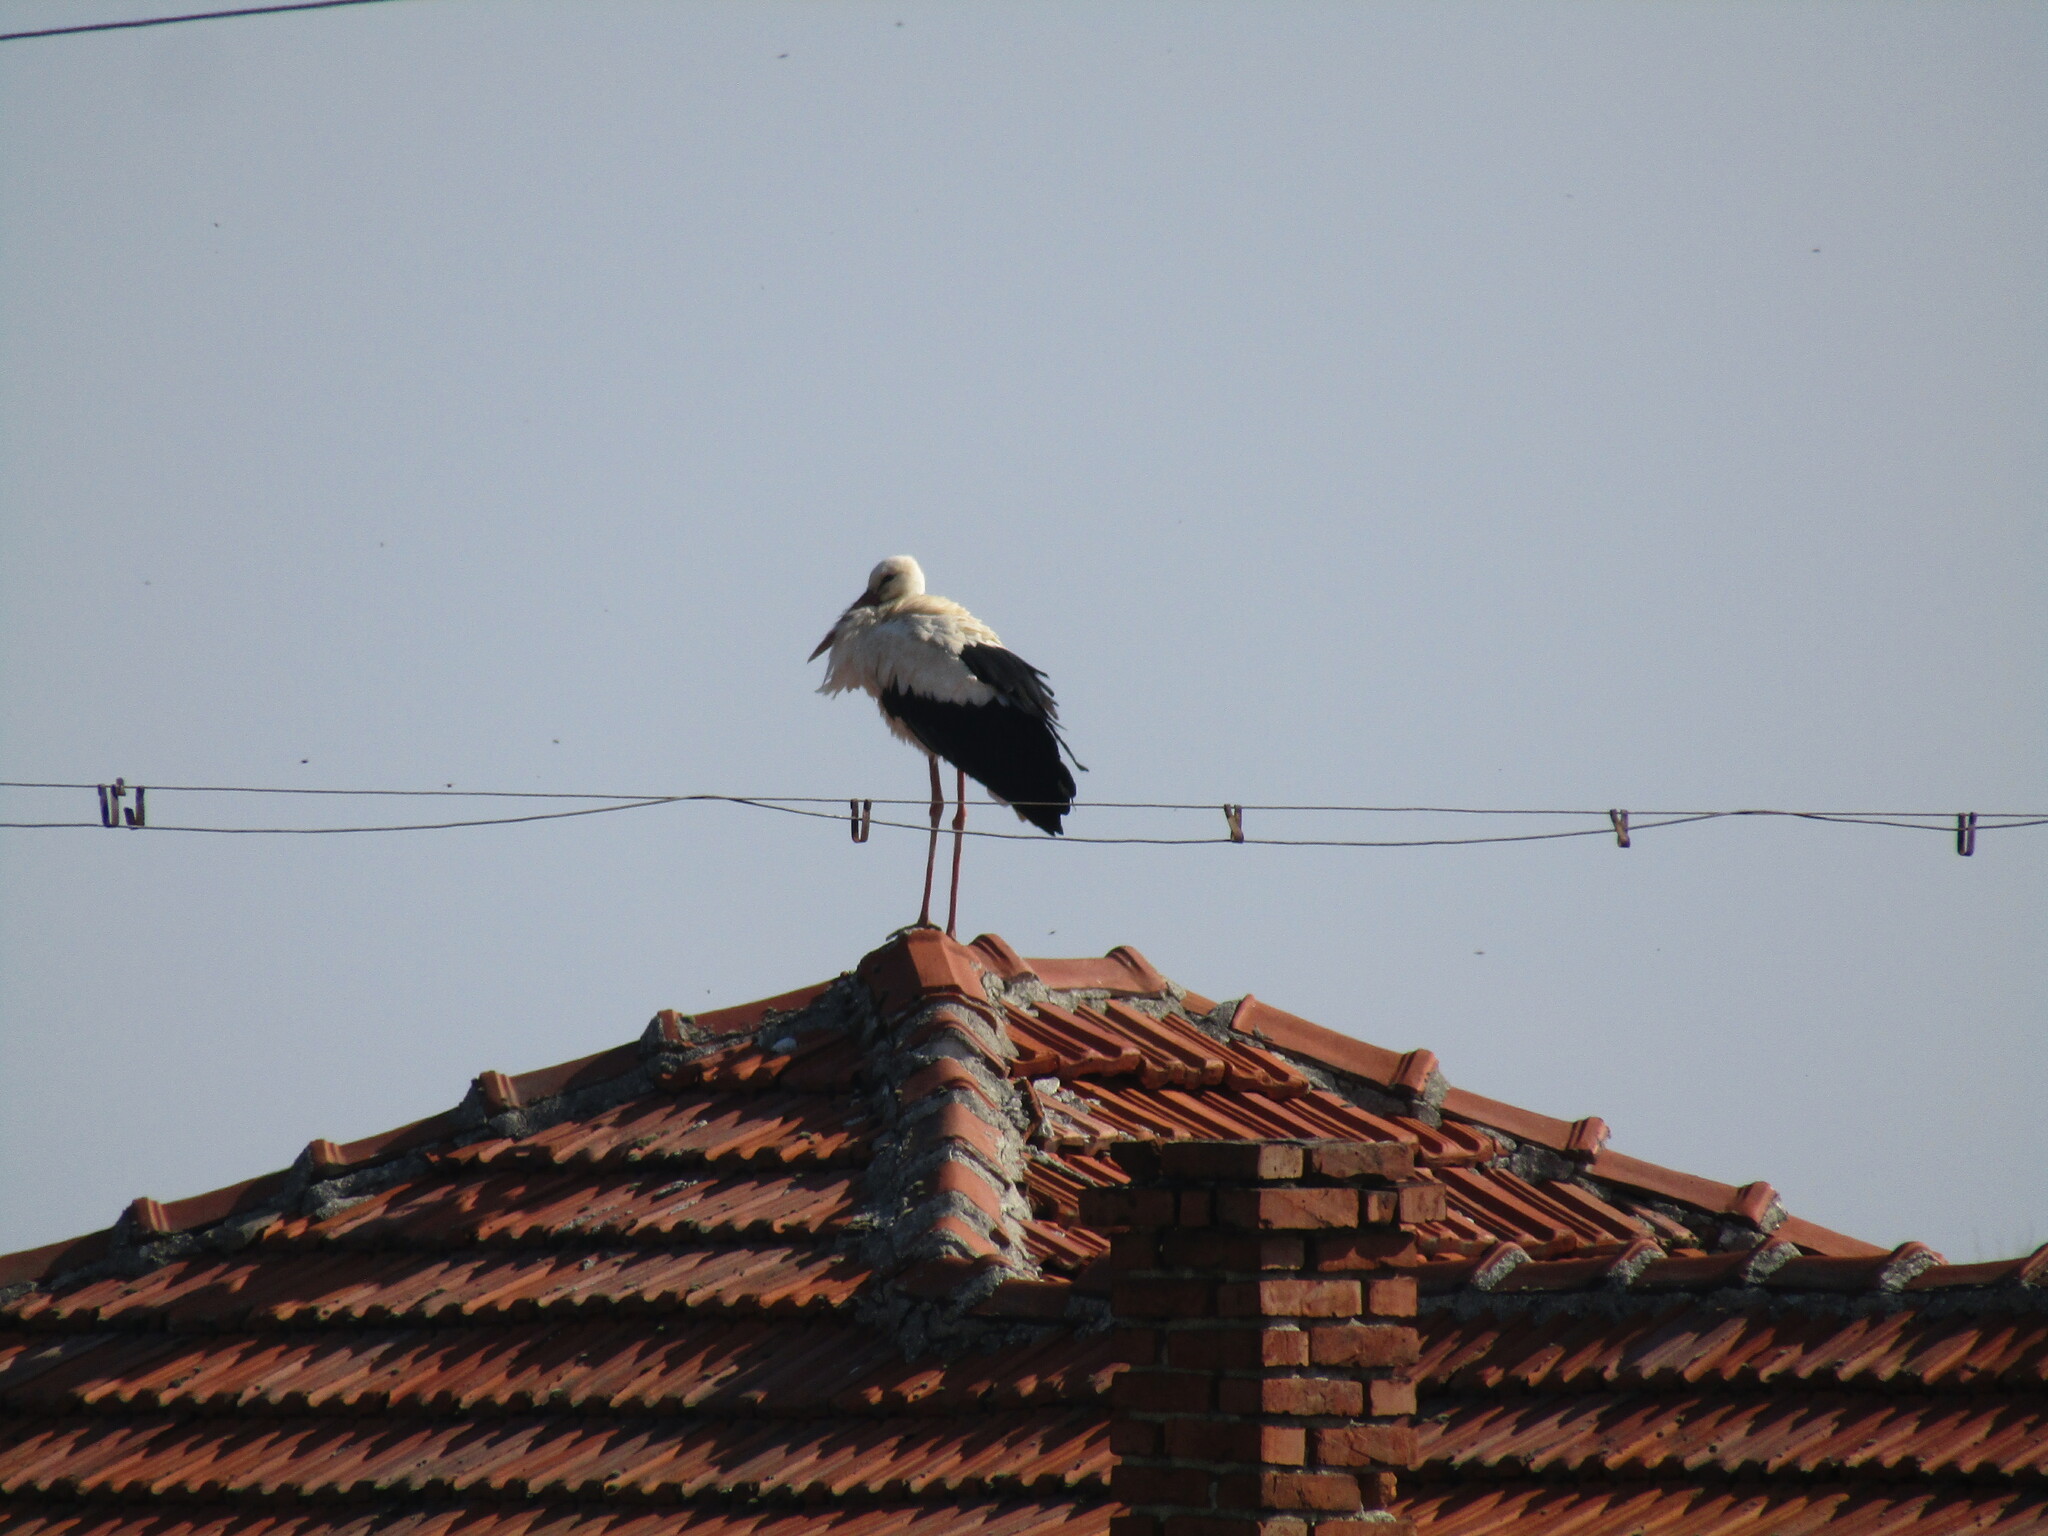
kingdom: Animalia
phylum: Chordata
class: Aves
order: Ciconiiformes
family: Ciconiidae
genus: Ciconia
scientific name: Ciconia ciconia
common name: White stork
